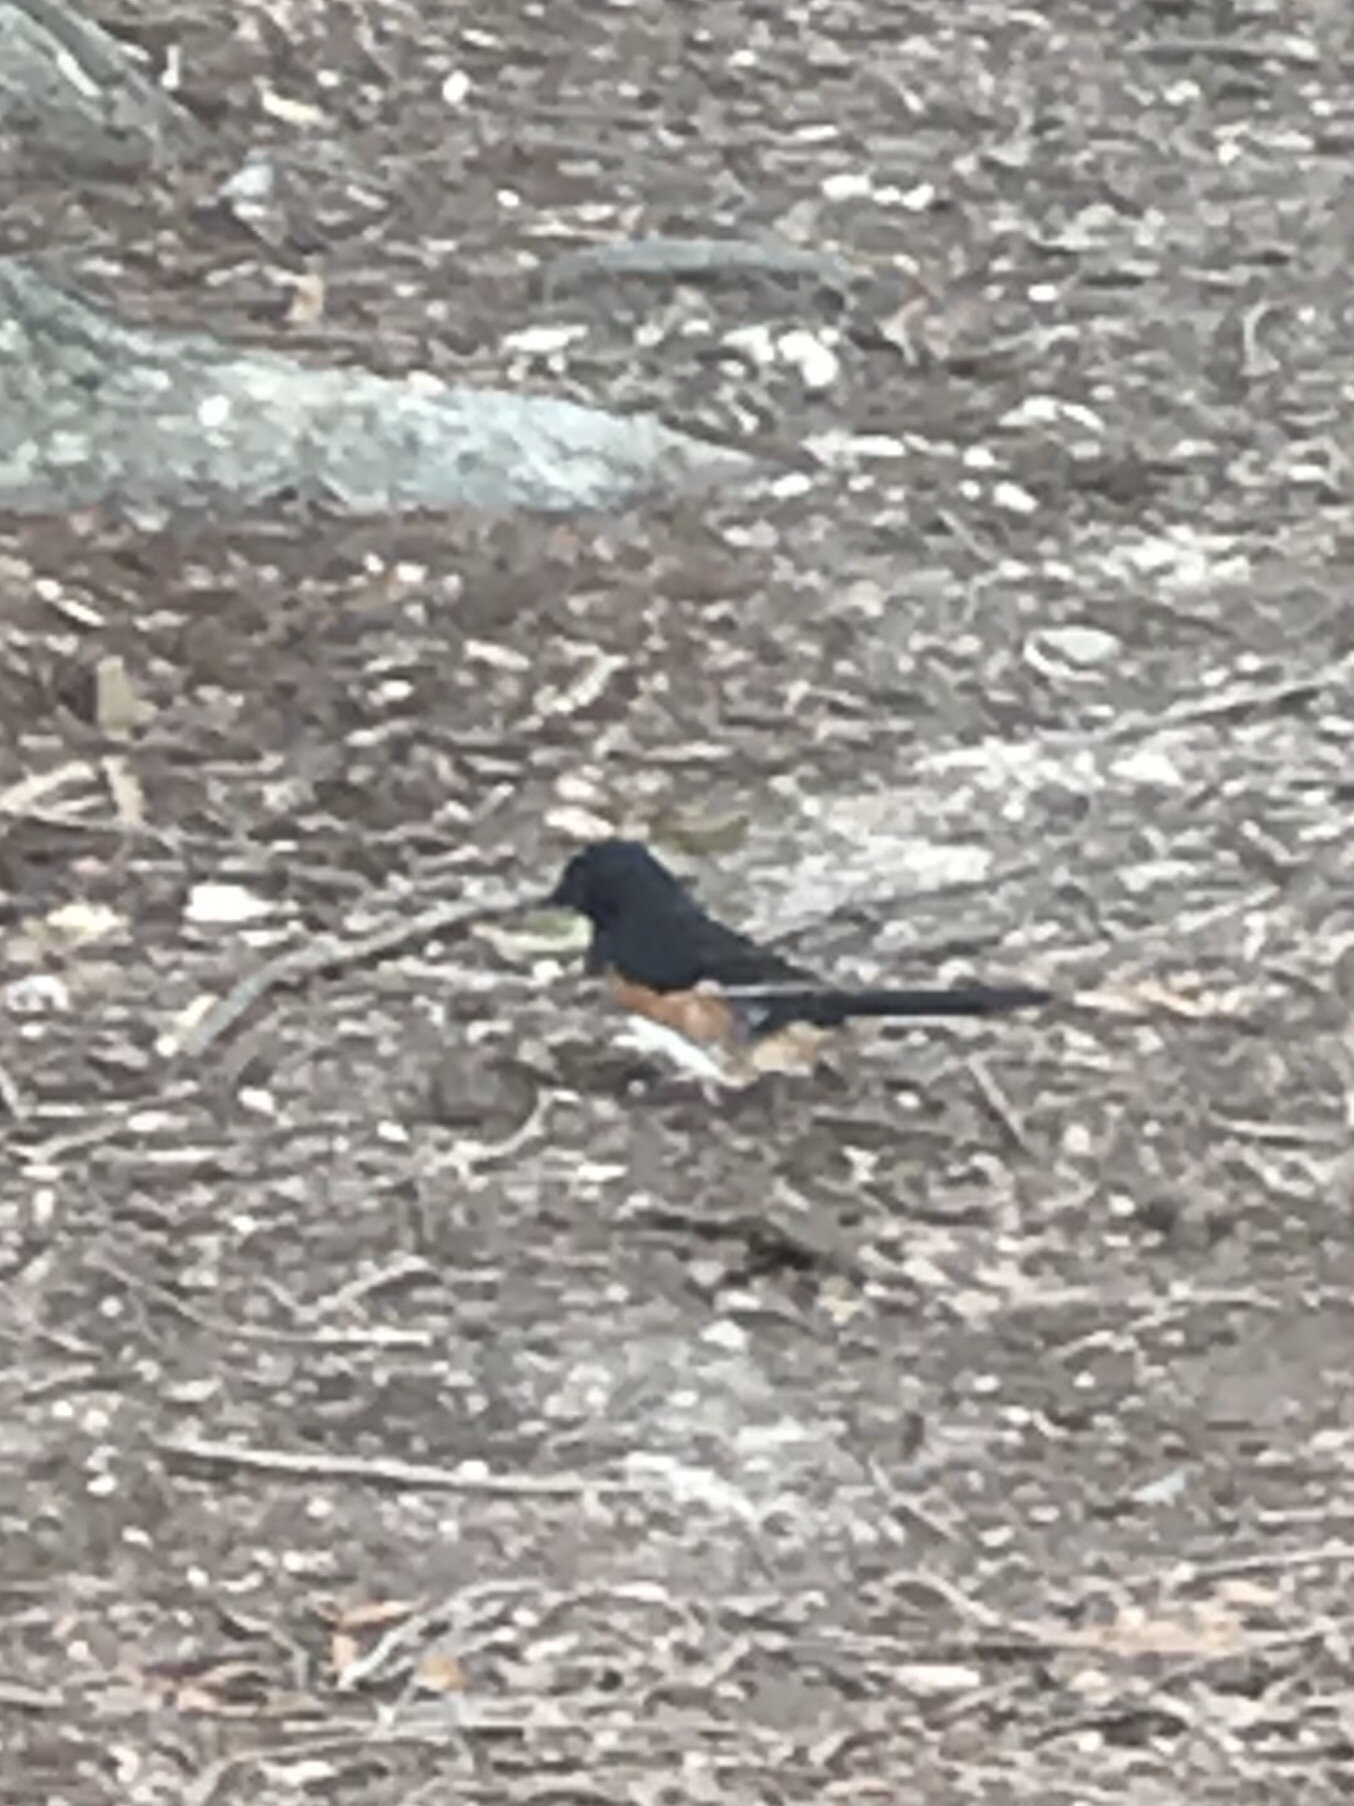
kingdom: Animalia
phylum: Chordata
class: Aves
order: Passeriformes
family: Passerellidae
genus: Pipilo
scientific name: Pipilo erythrophthalmus
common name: Eastern towhee
